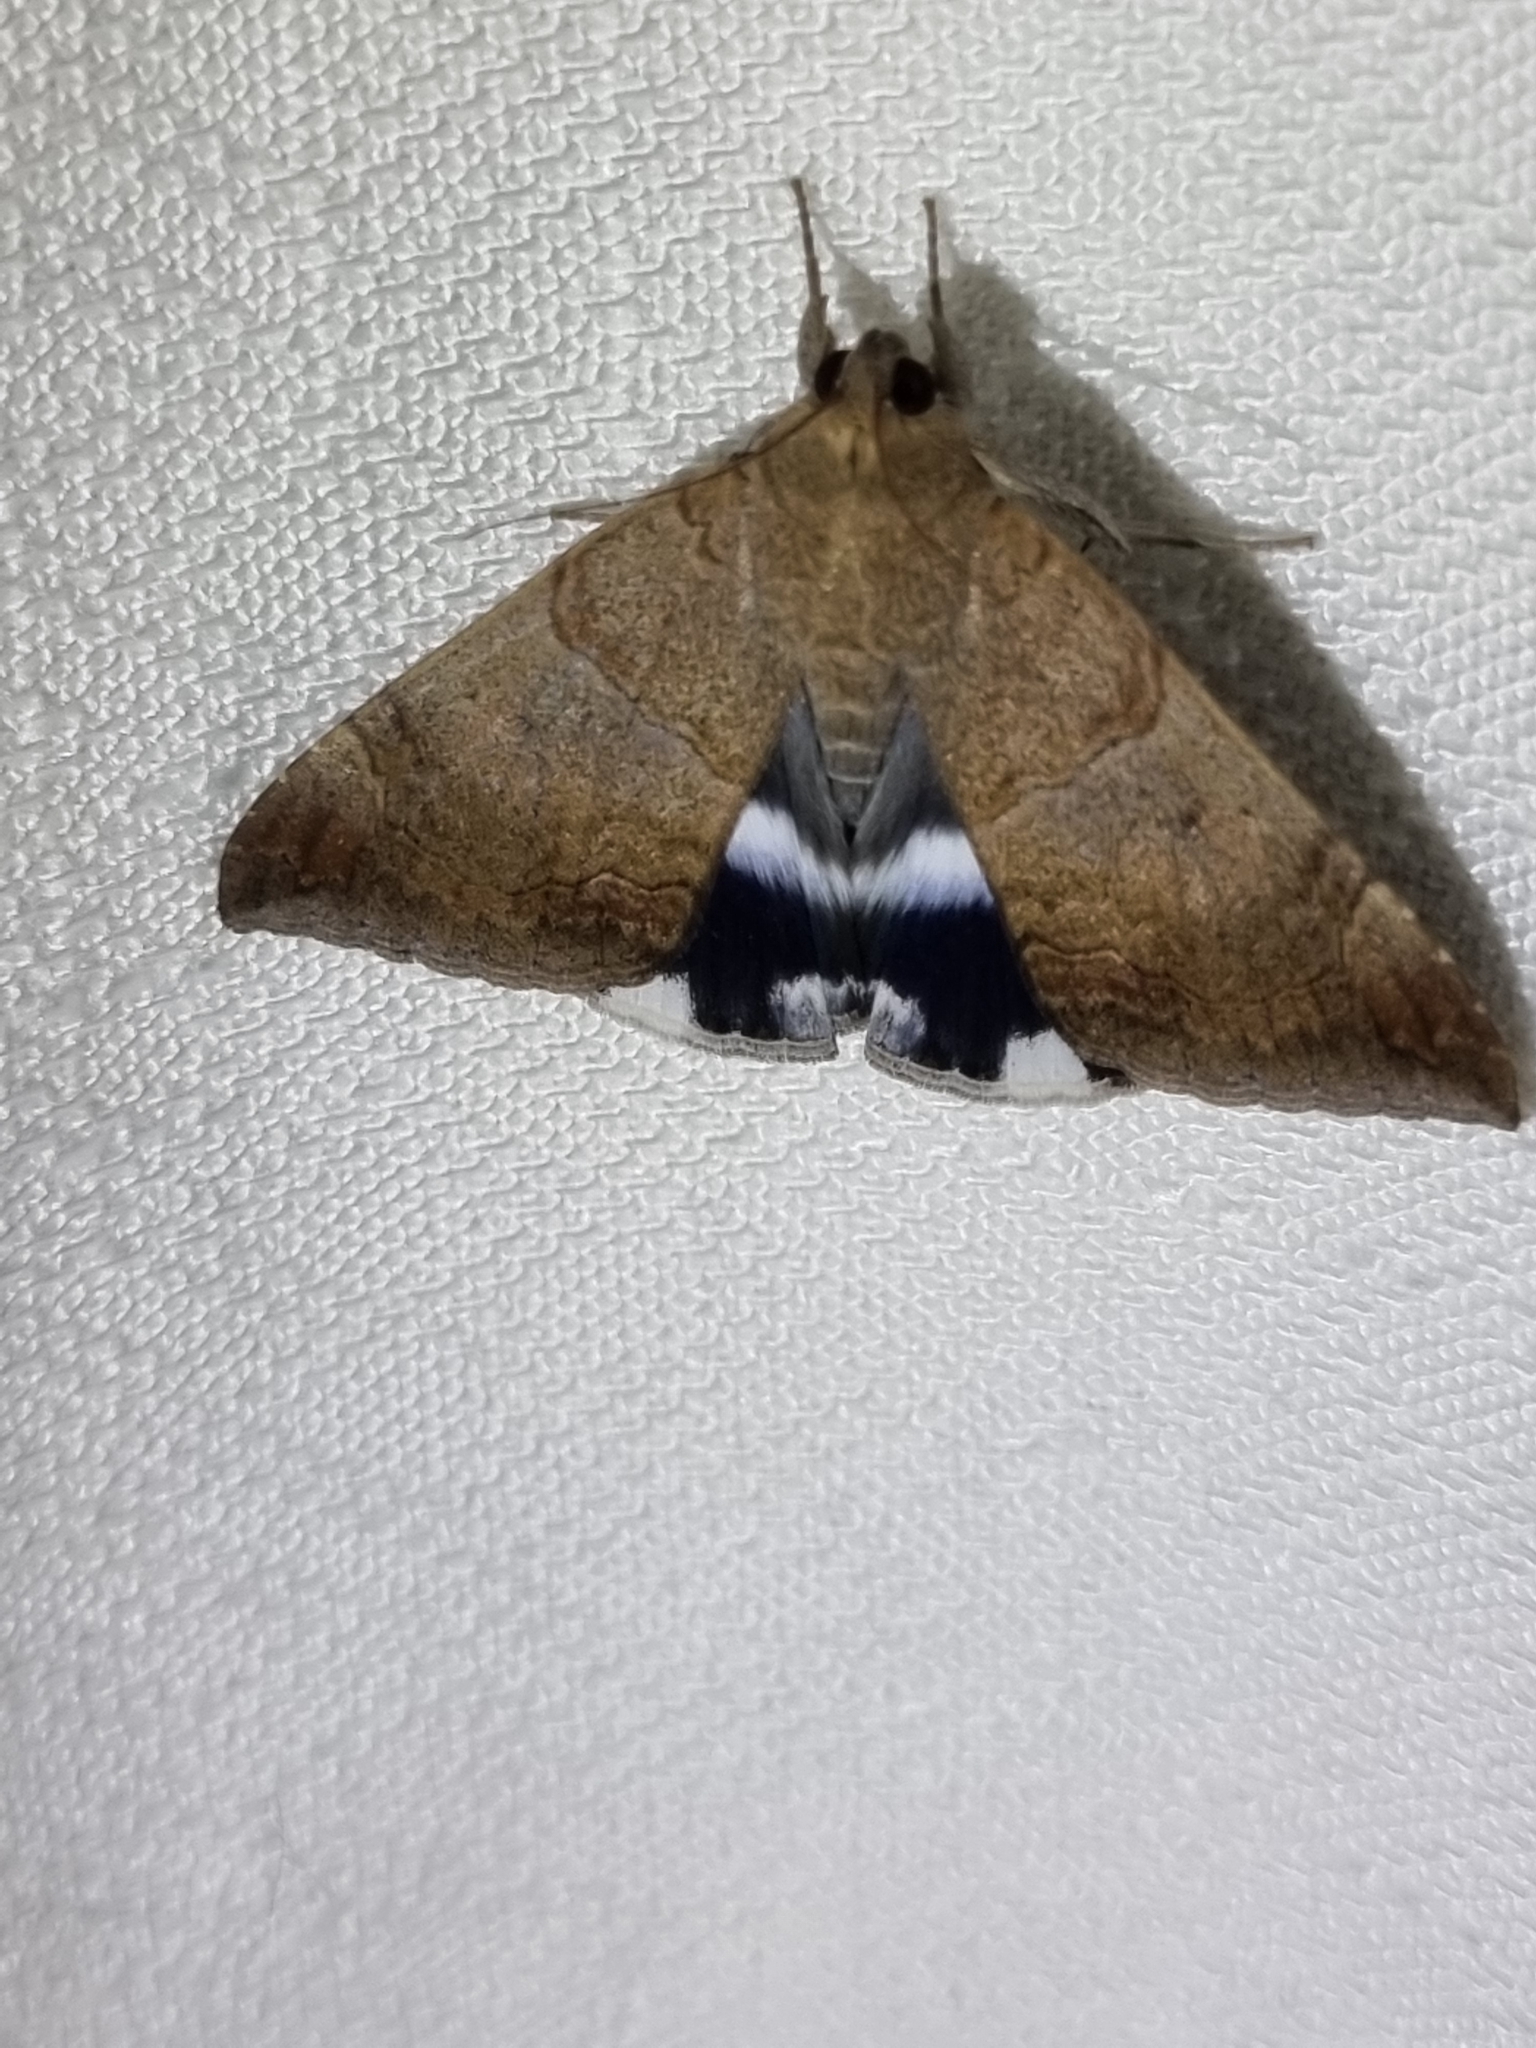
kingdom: Animalia
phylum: Arthropoda
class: Insecta
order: Lepidoptera
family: Erebidae
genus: Achaea
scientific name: Achaea janata
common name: Croton caterpillar
